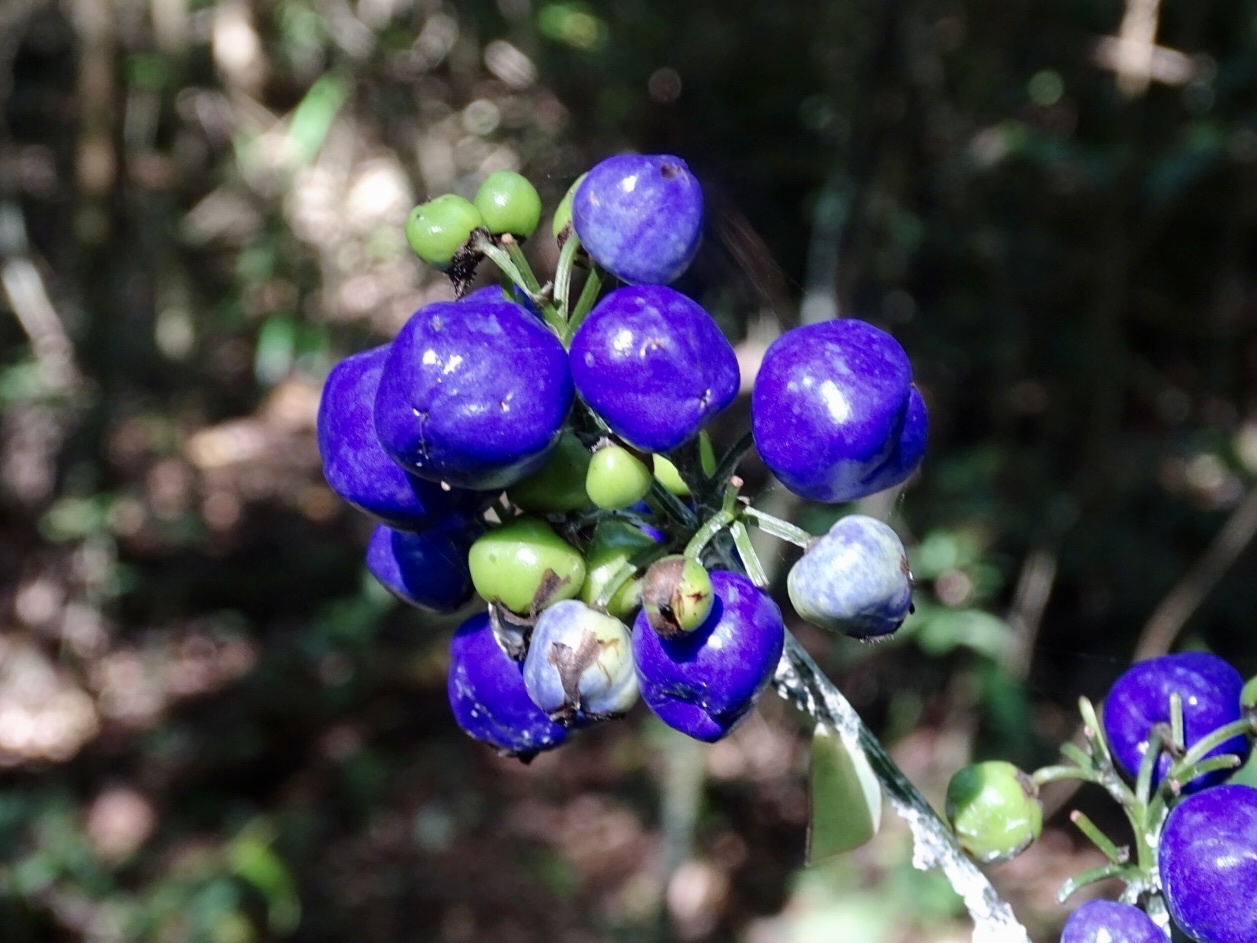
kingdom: Plantae
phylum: Tracheophyta
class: Liliopsida
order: Asparagales
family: Asphodelaceae
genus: Dianella
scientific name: Dianella ensifolia
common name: New zealand lilyplant
